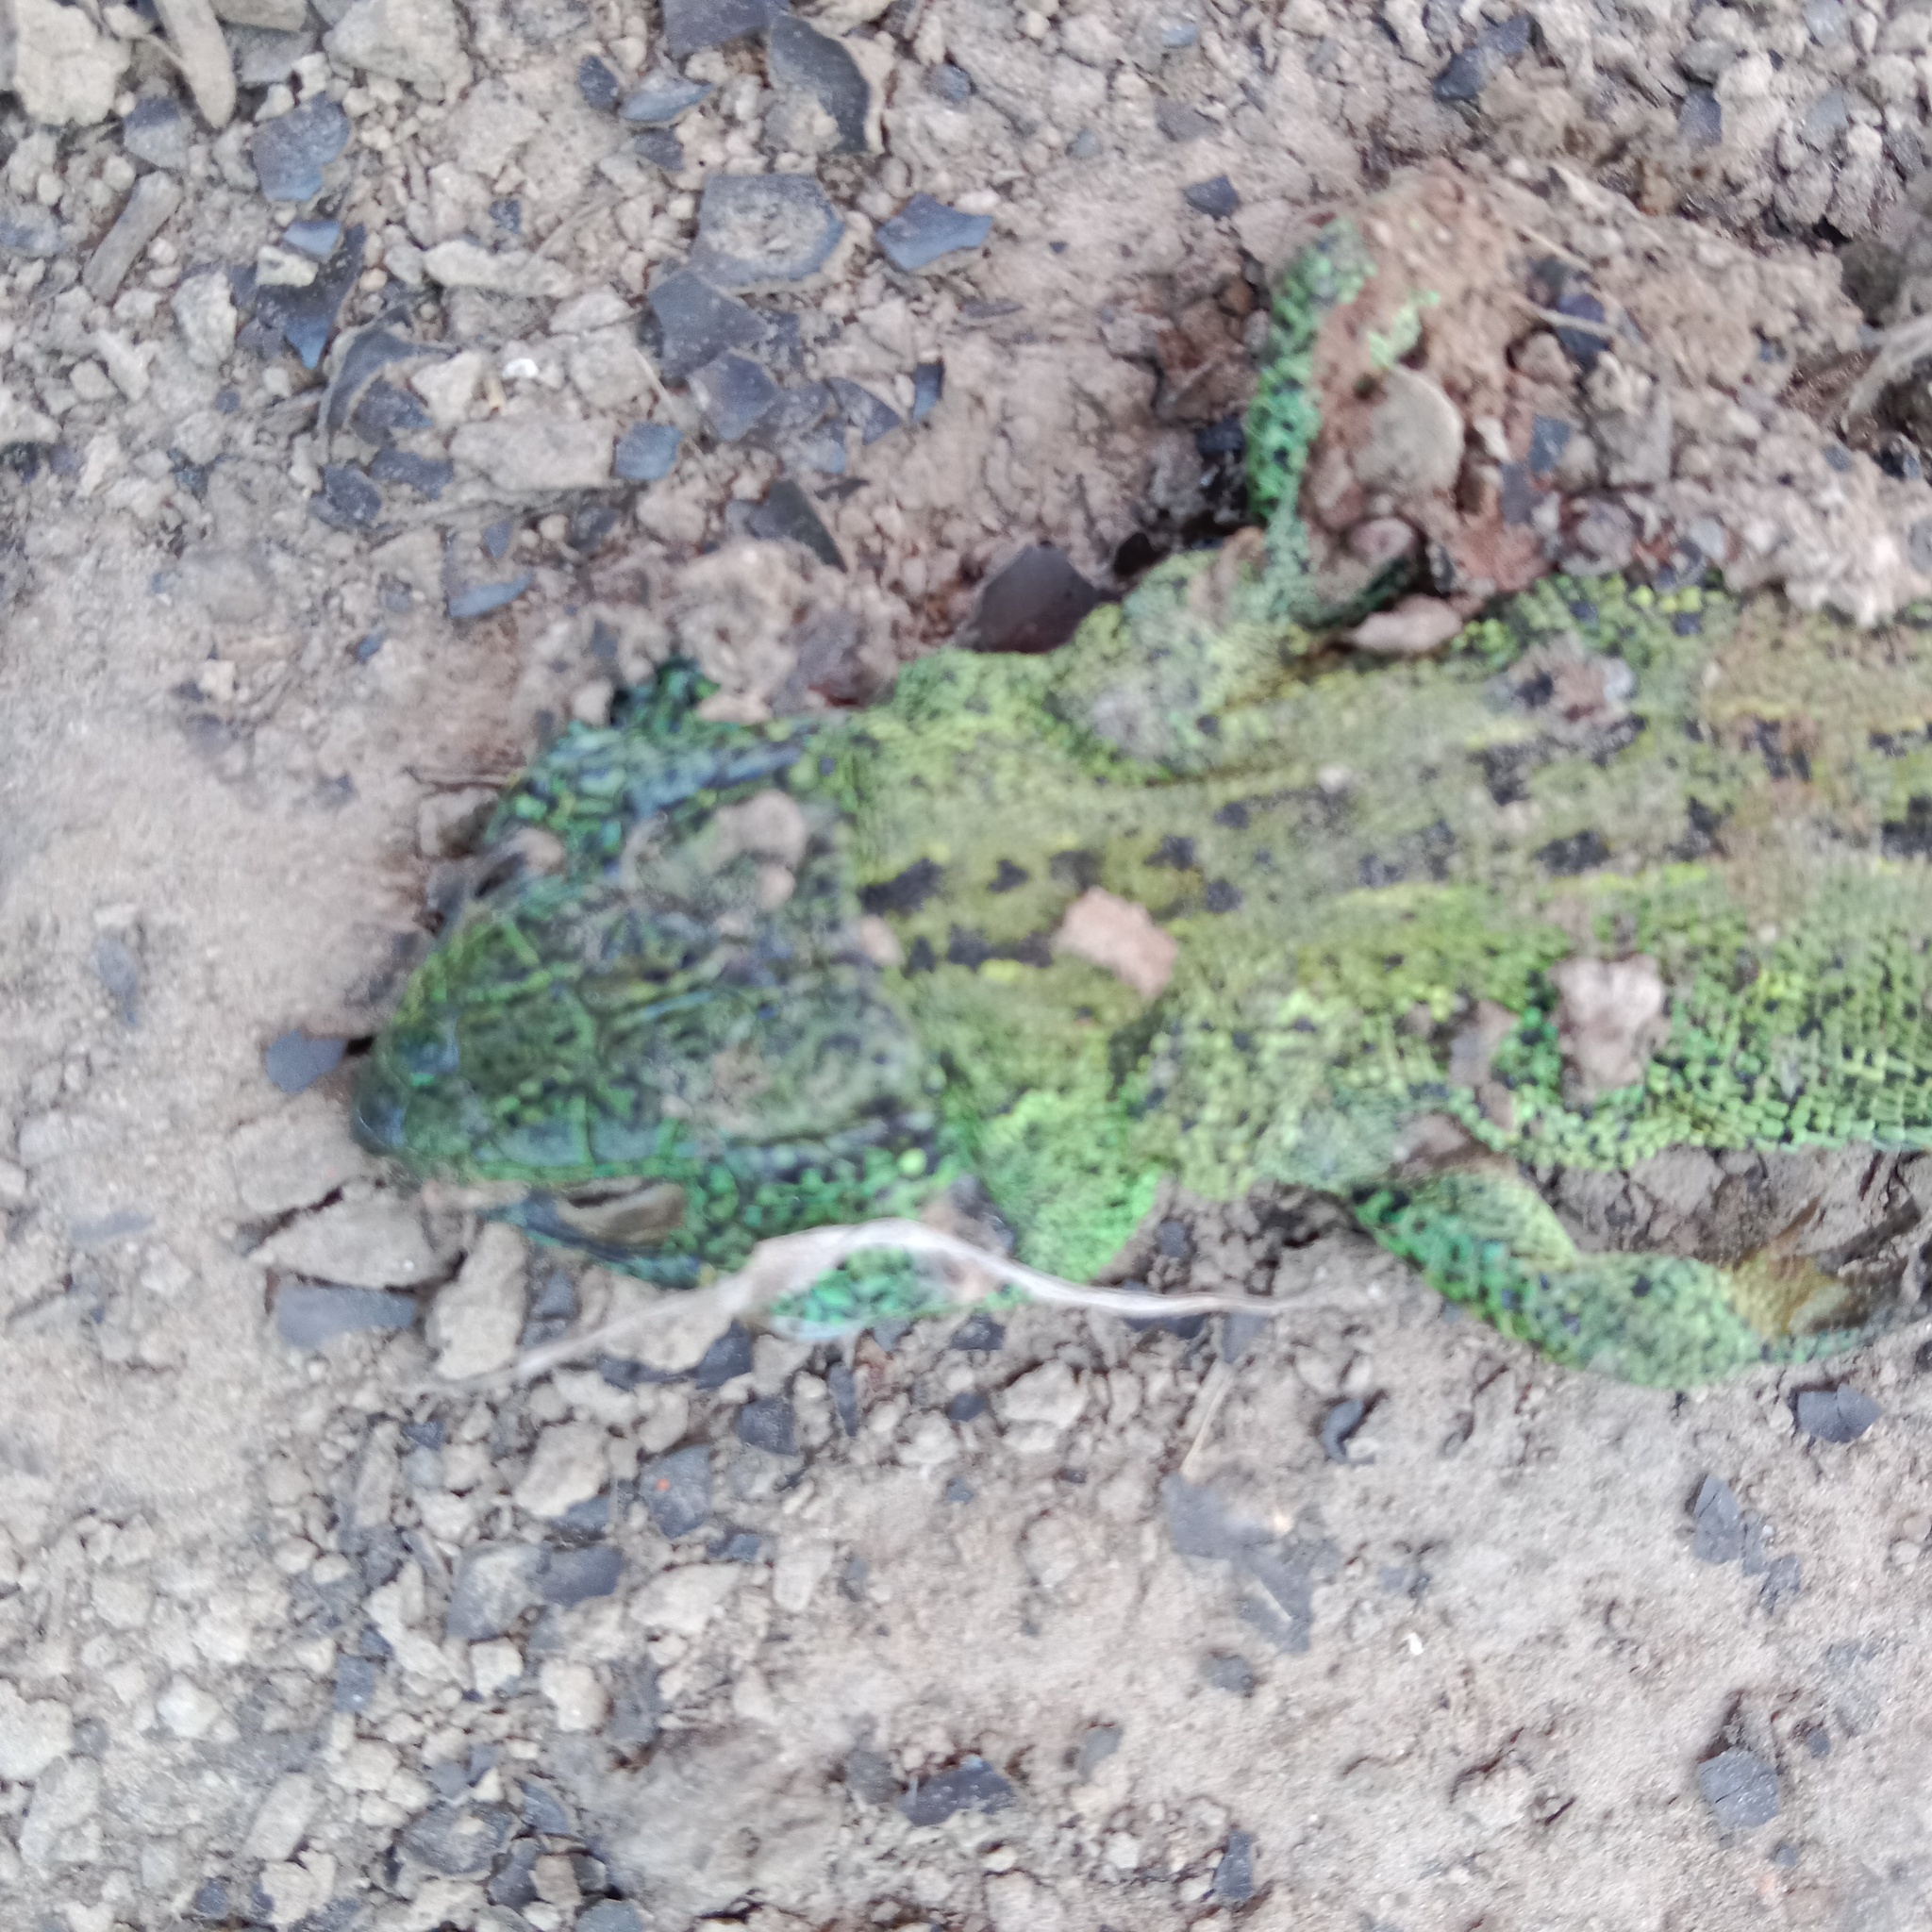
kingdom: Animalia
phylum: Chordata
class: Squamata
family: Lacertidae
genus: Lacerta
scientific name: Lacerta agilis
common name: Sand lizard
